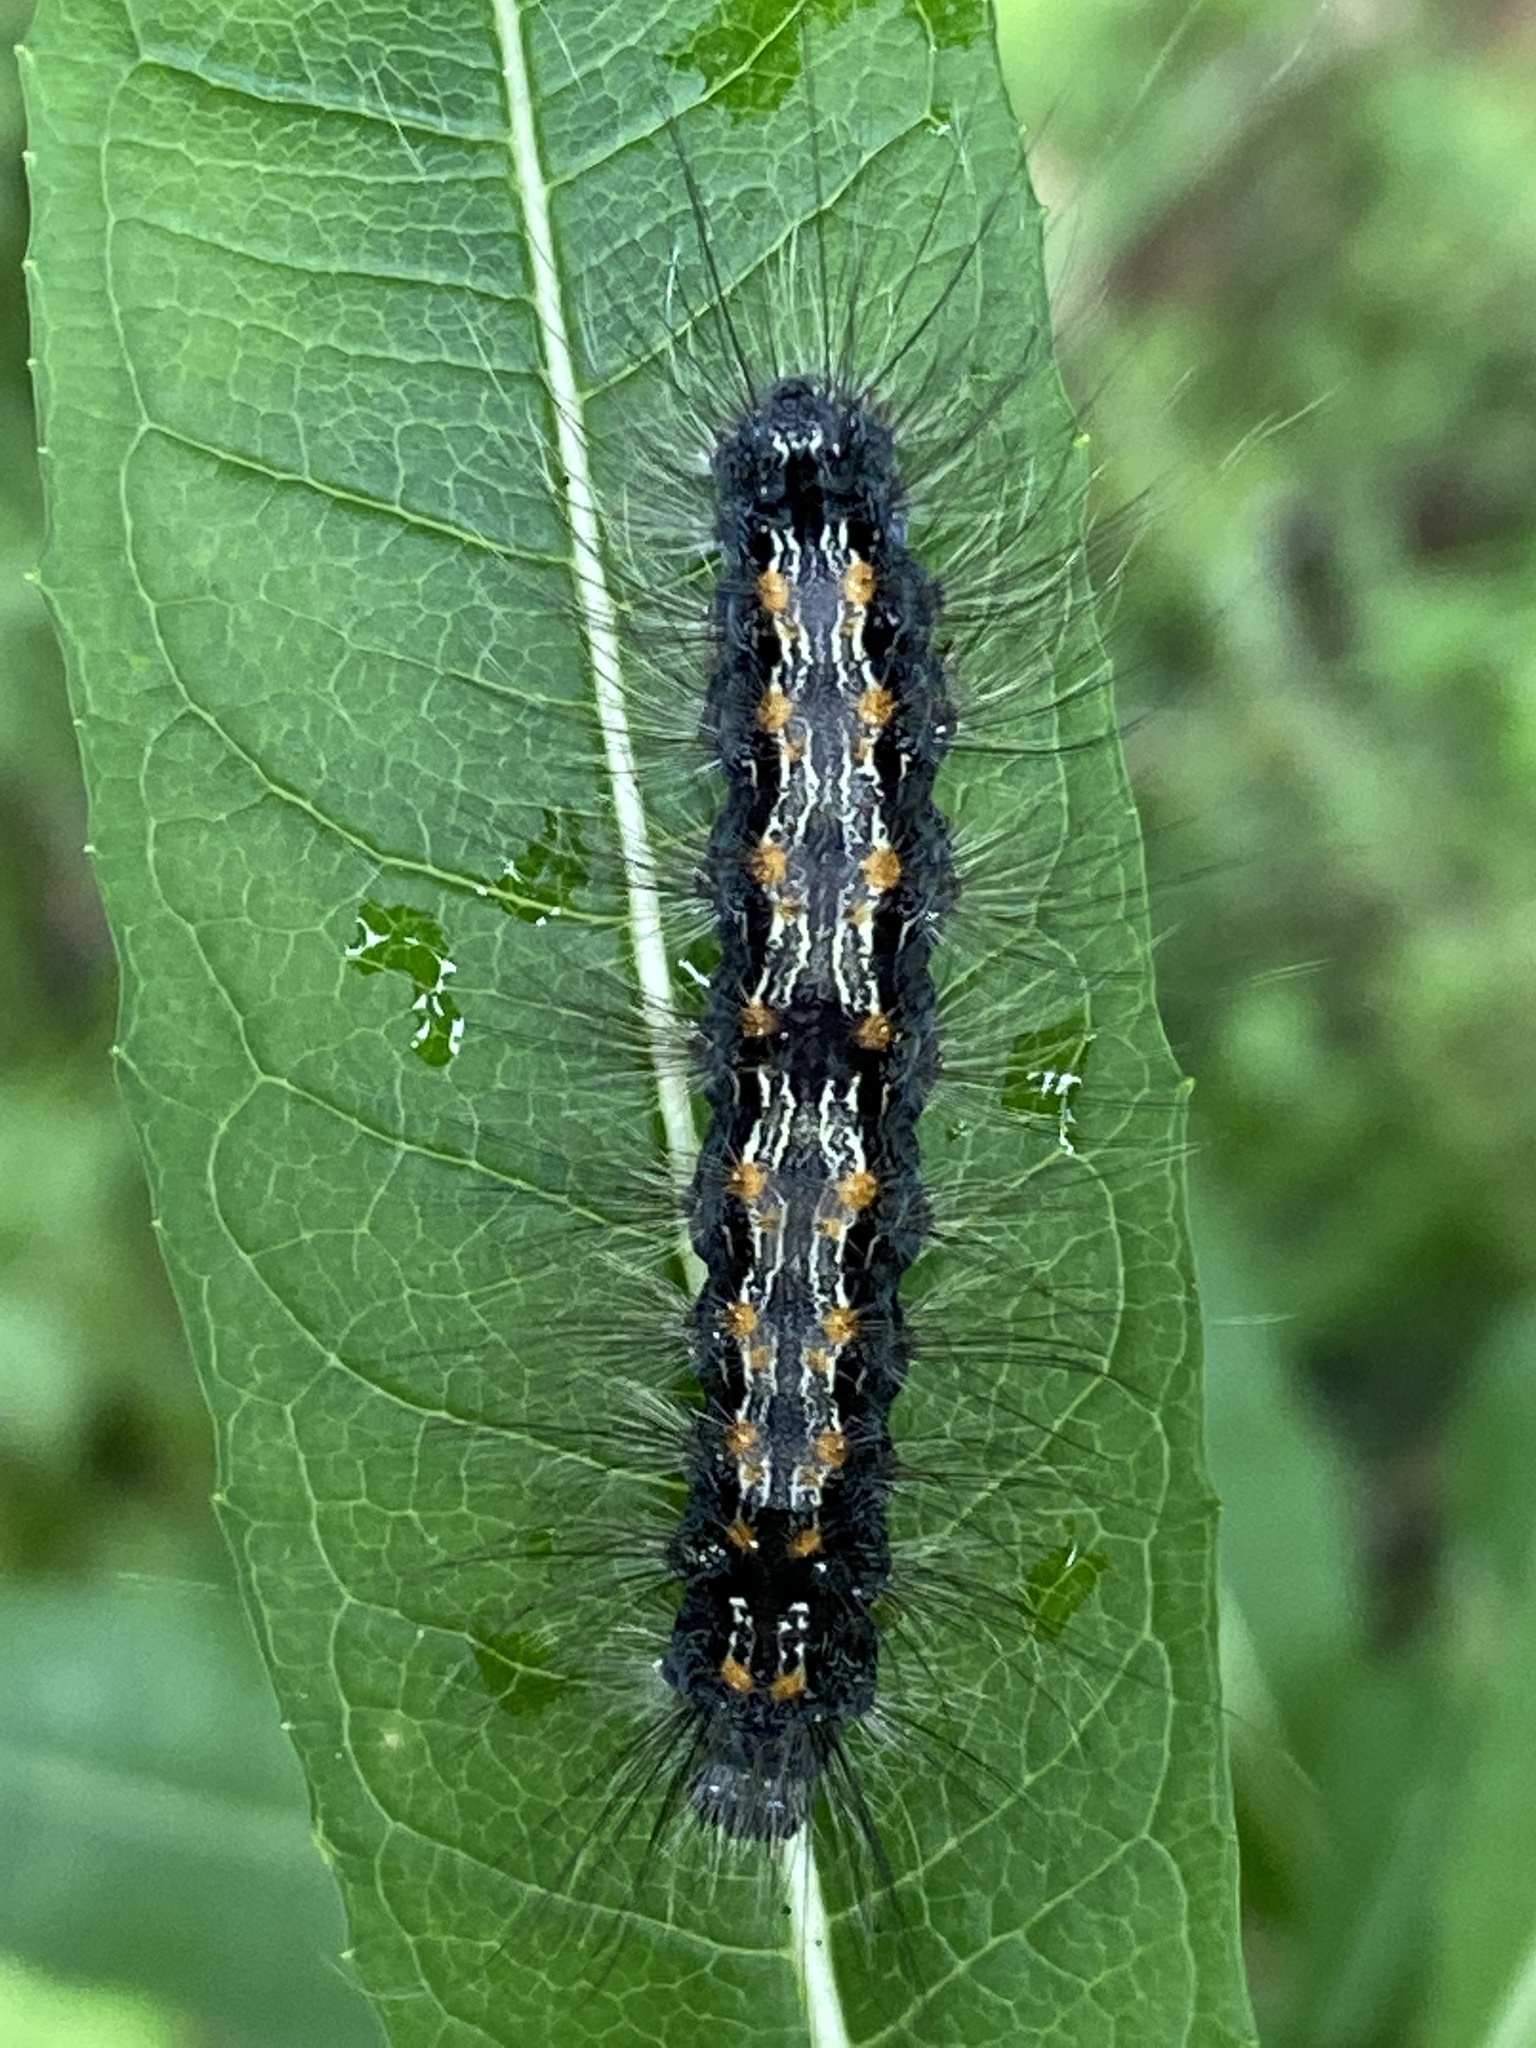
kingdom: Animalia
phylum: Arthropoda
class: Insecta
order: Lepidoptera
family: Erebidae
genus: Lithosia
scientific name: Lithosia quadra
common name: Four-spotted footman
